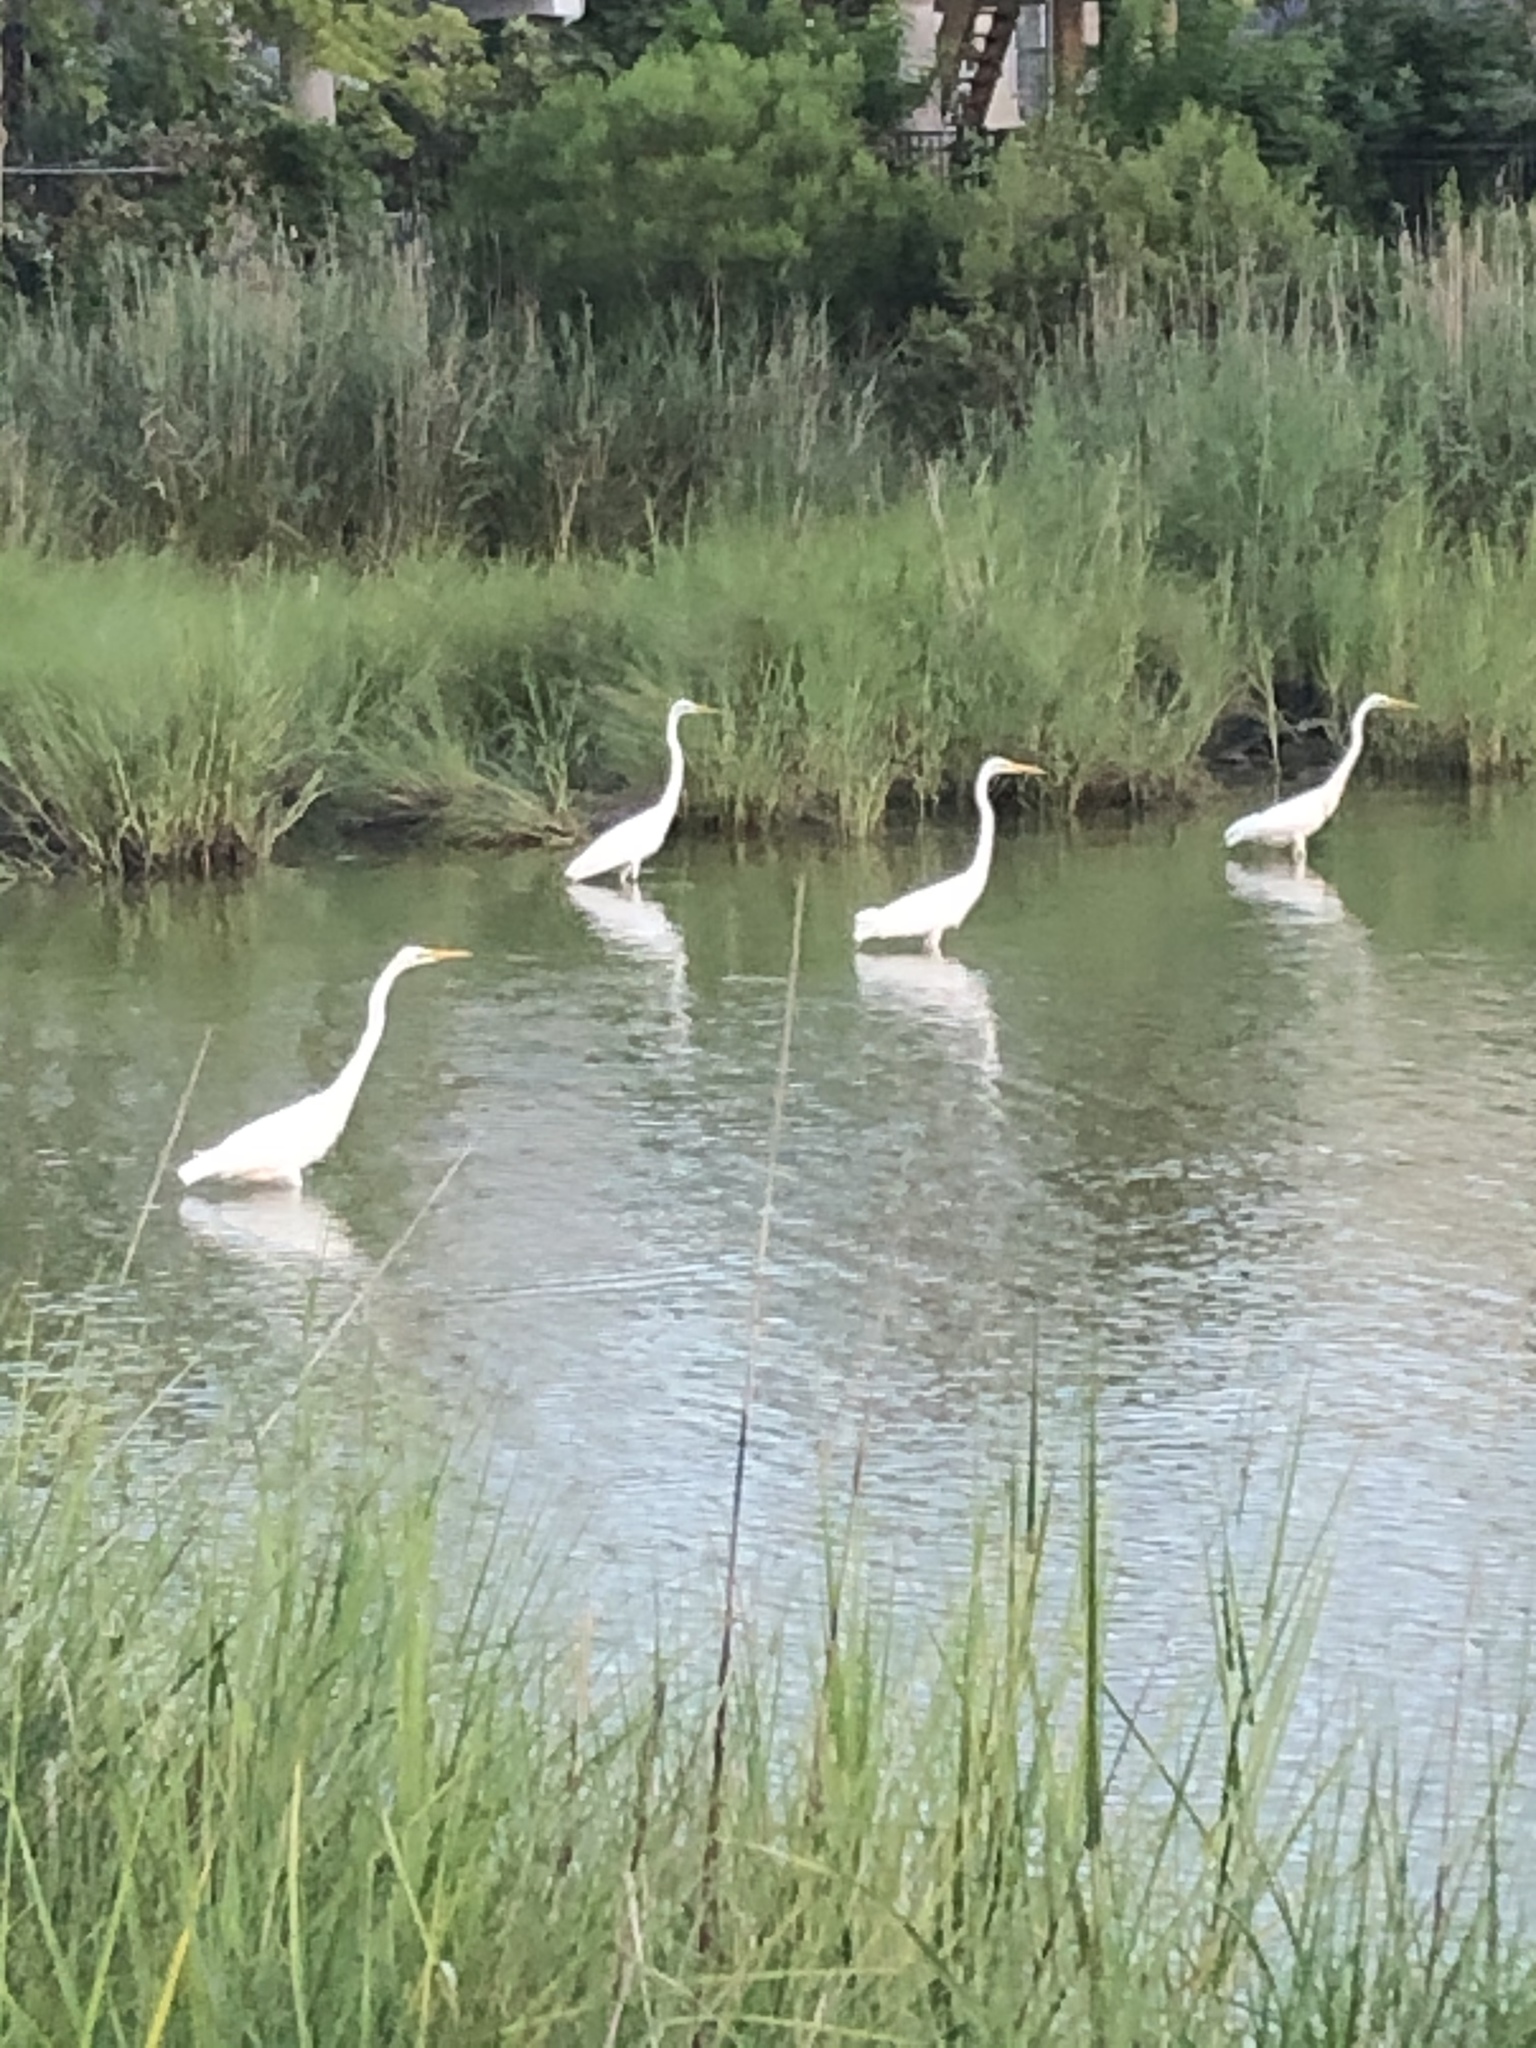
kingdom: Animalia
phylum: Chordata
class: Aves
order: Pelecaniformes
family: Ardeidae
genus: Ardea
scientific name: Ardea alba
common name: Great egret
